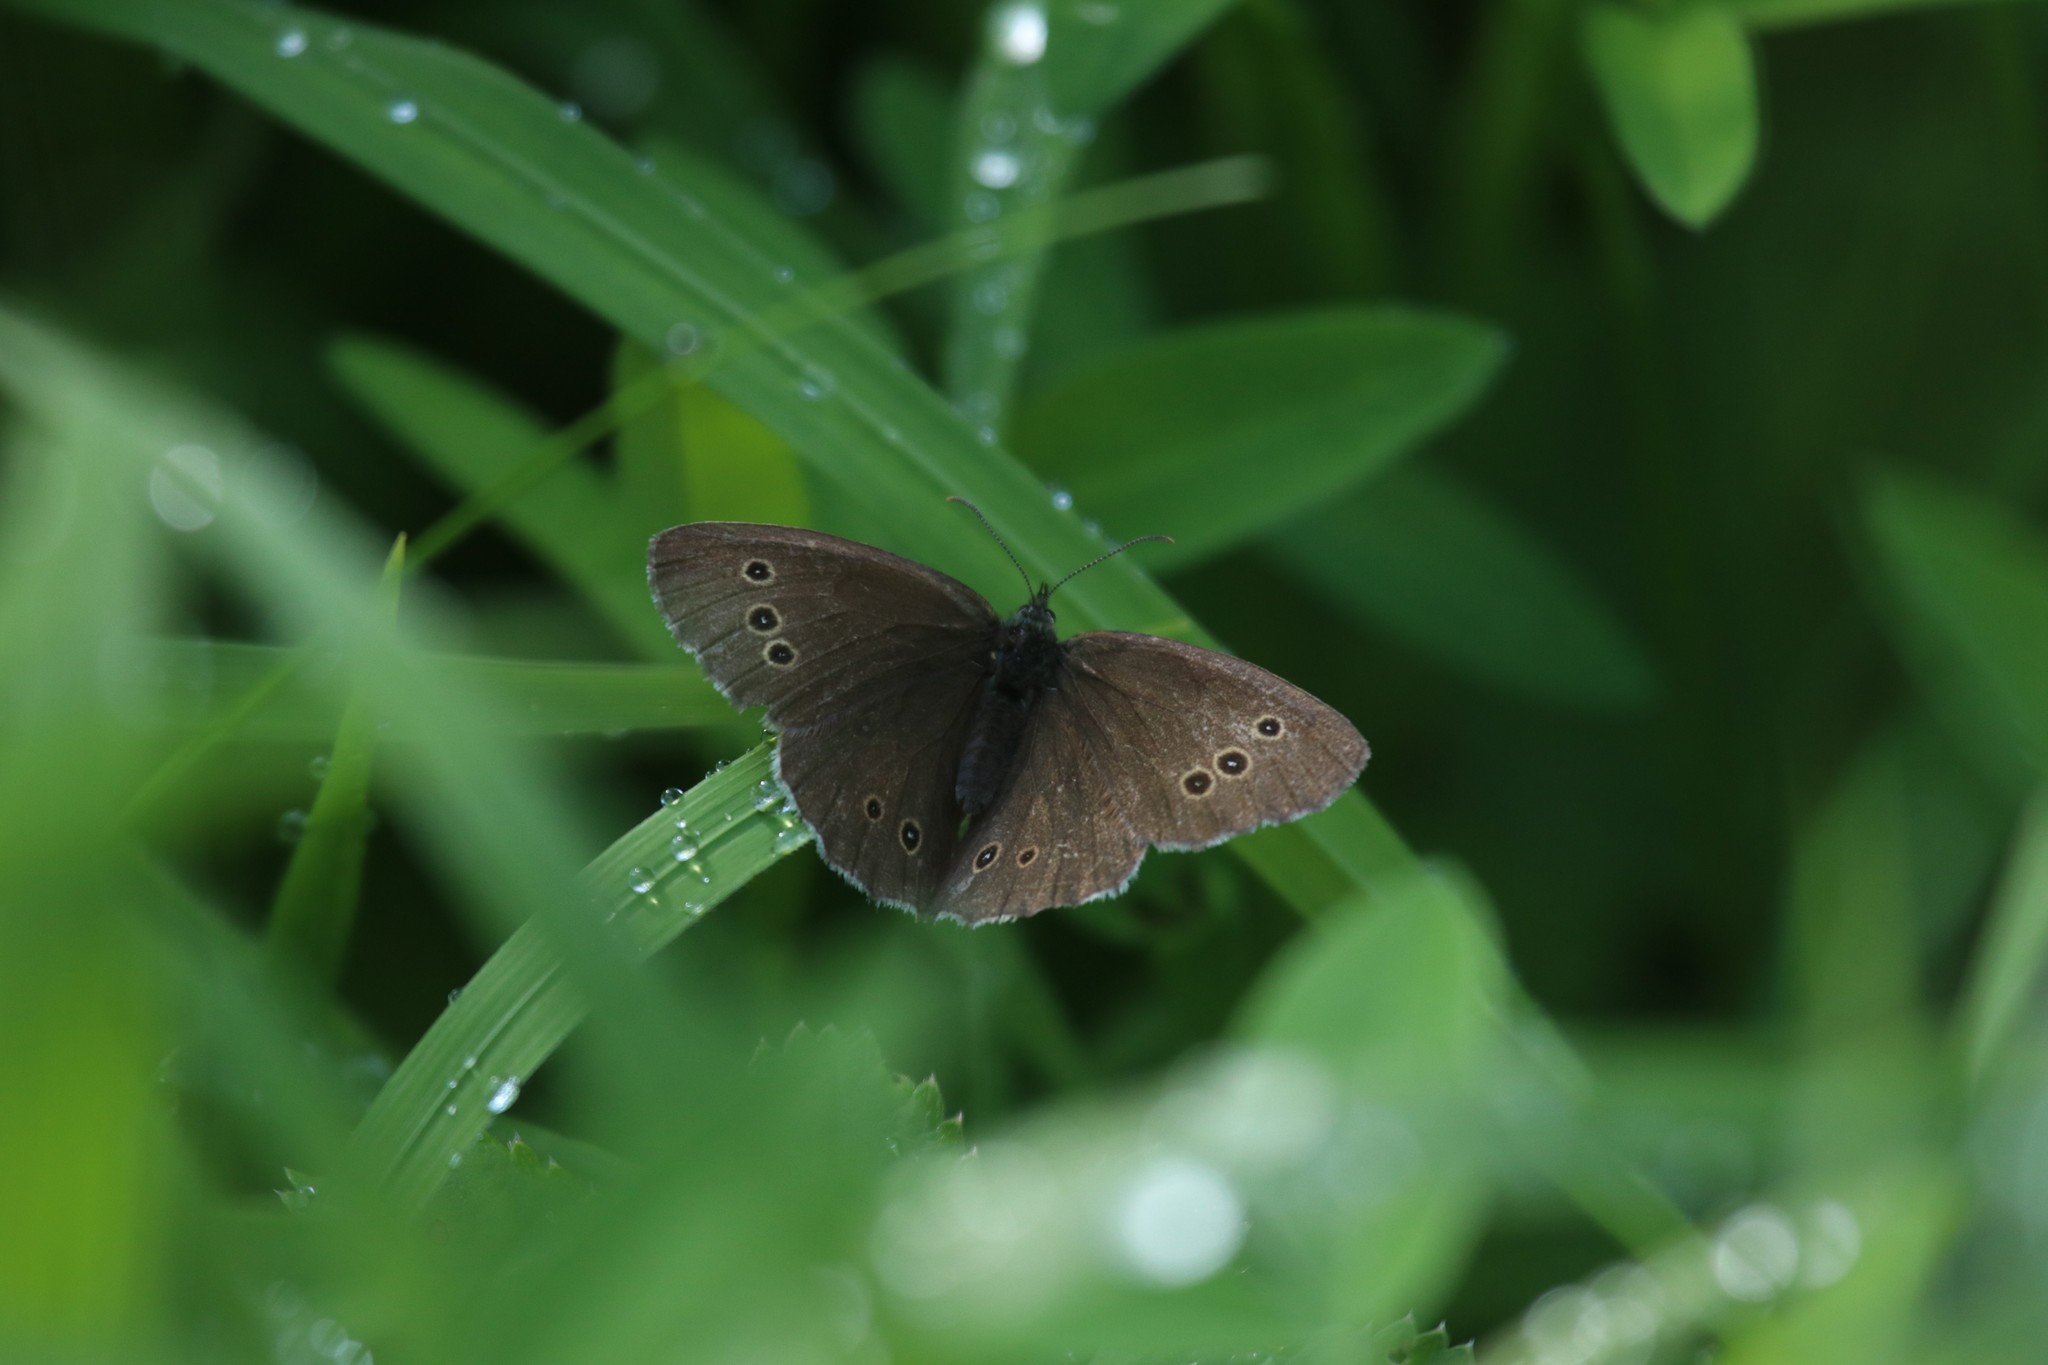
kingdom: Animalia
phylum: Arthropoda
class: Insecta
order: Lepidoptera
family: Nymphalidae
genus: Aphantopus
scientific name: Aphantopus hyperantus
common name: Ringlet
